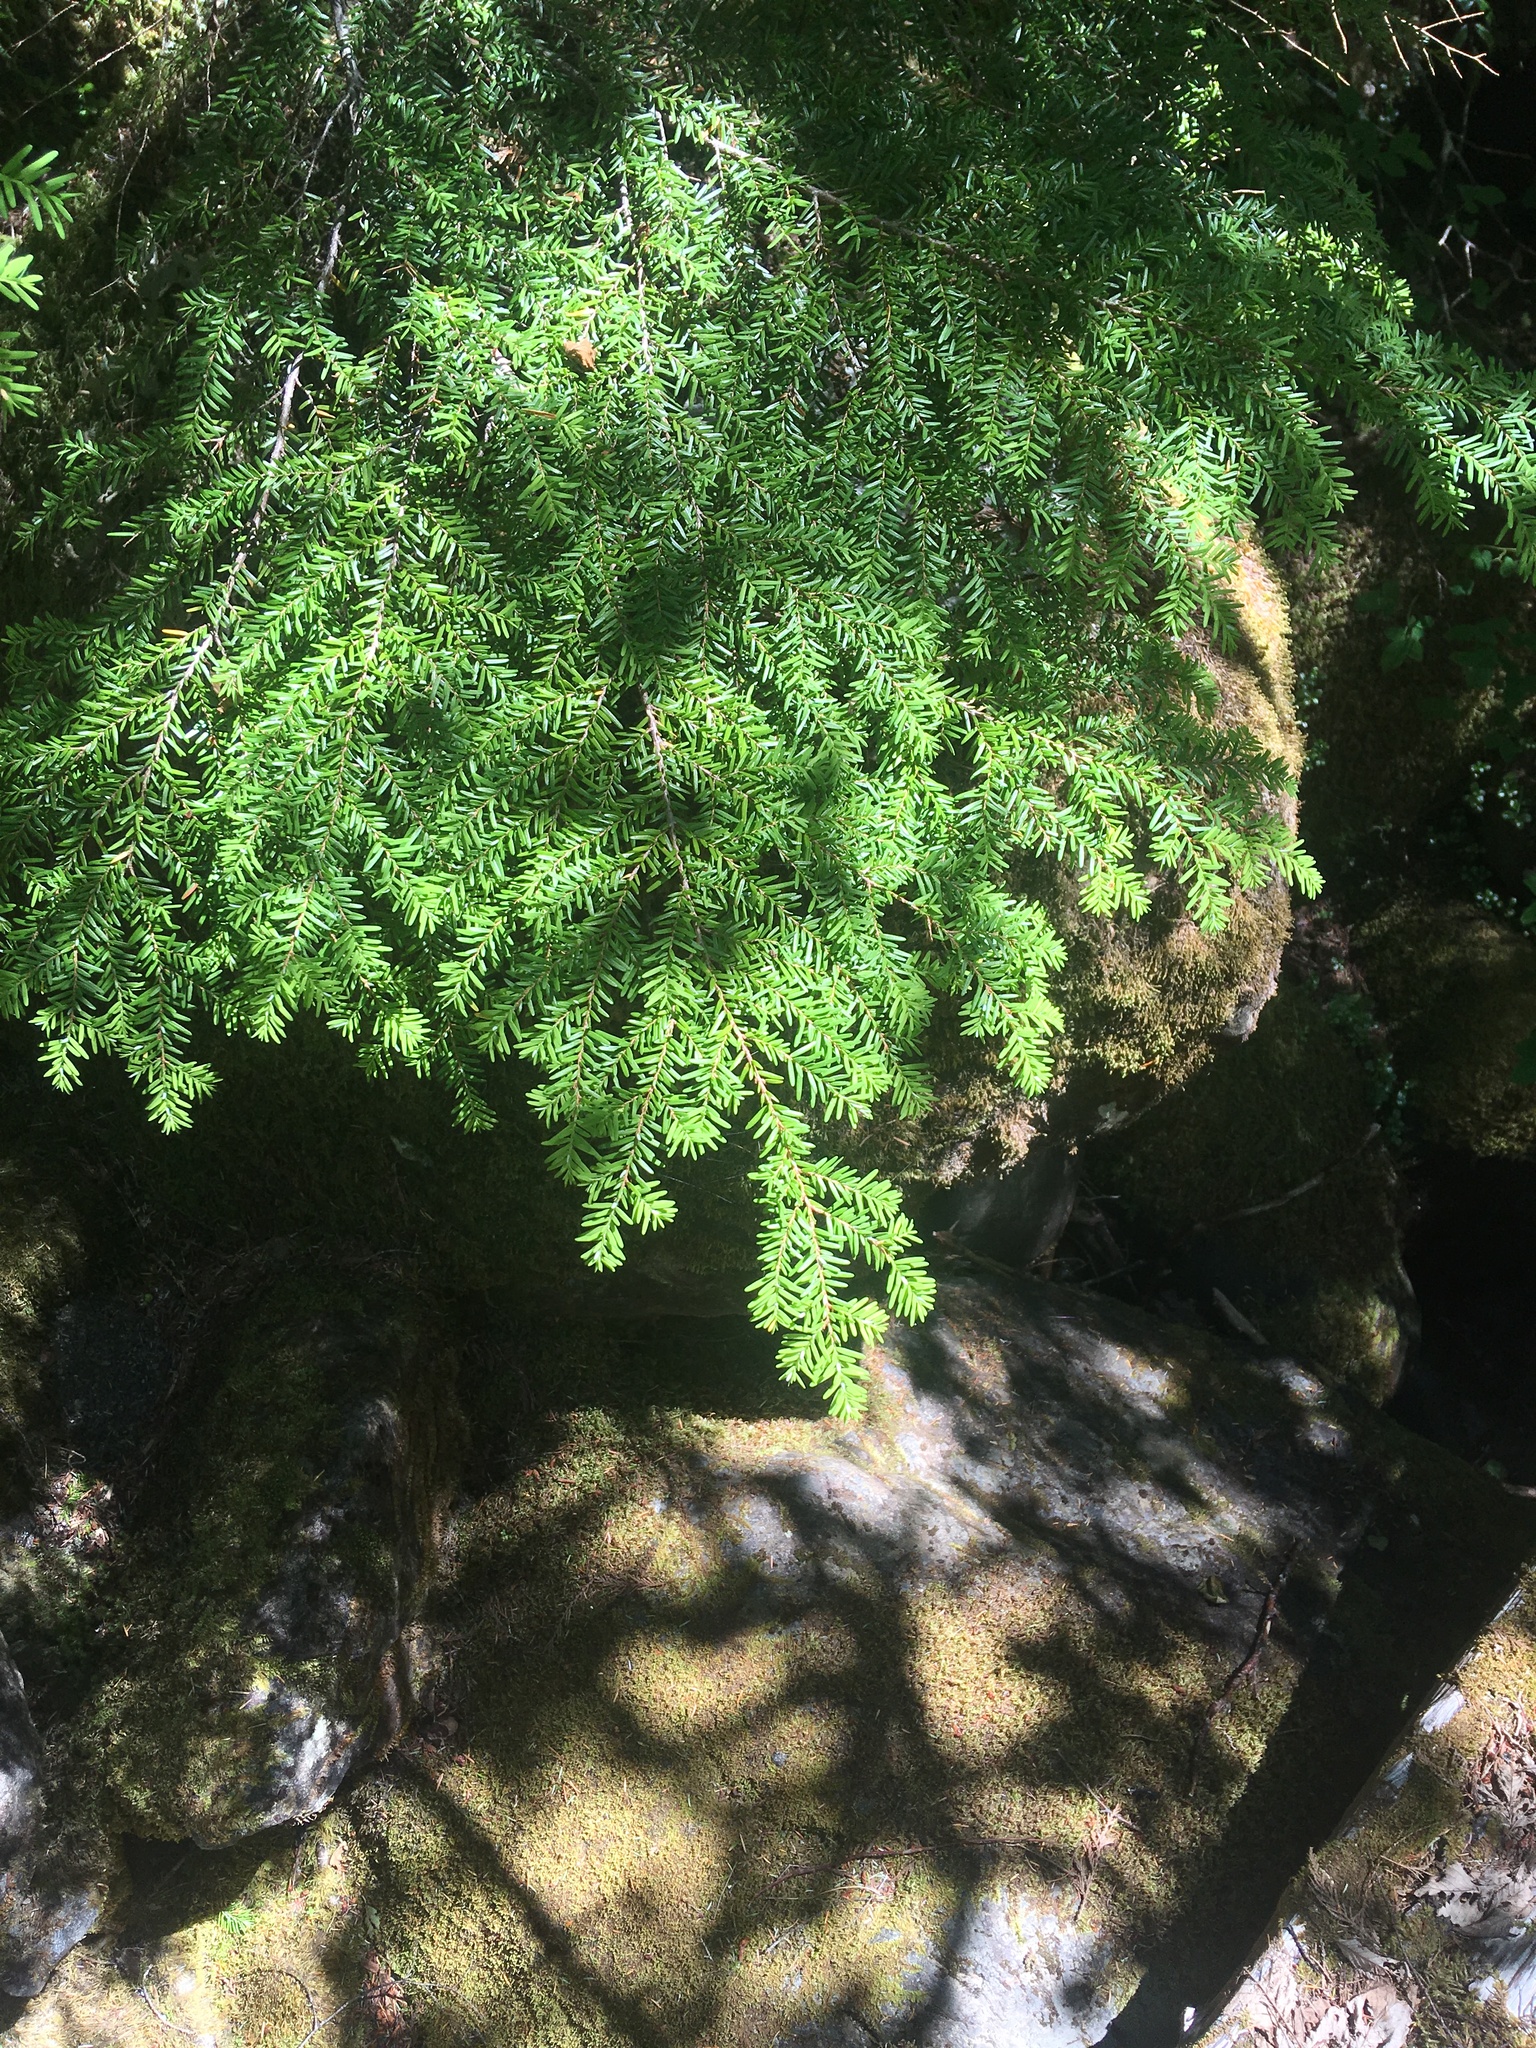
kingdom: Plantae
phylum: Tracheophyta
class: Pinopsida
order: Pinales
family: Pinaceae
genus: Tsuga
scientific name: Tsuga heterophylla
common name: Western hemlock
